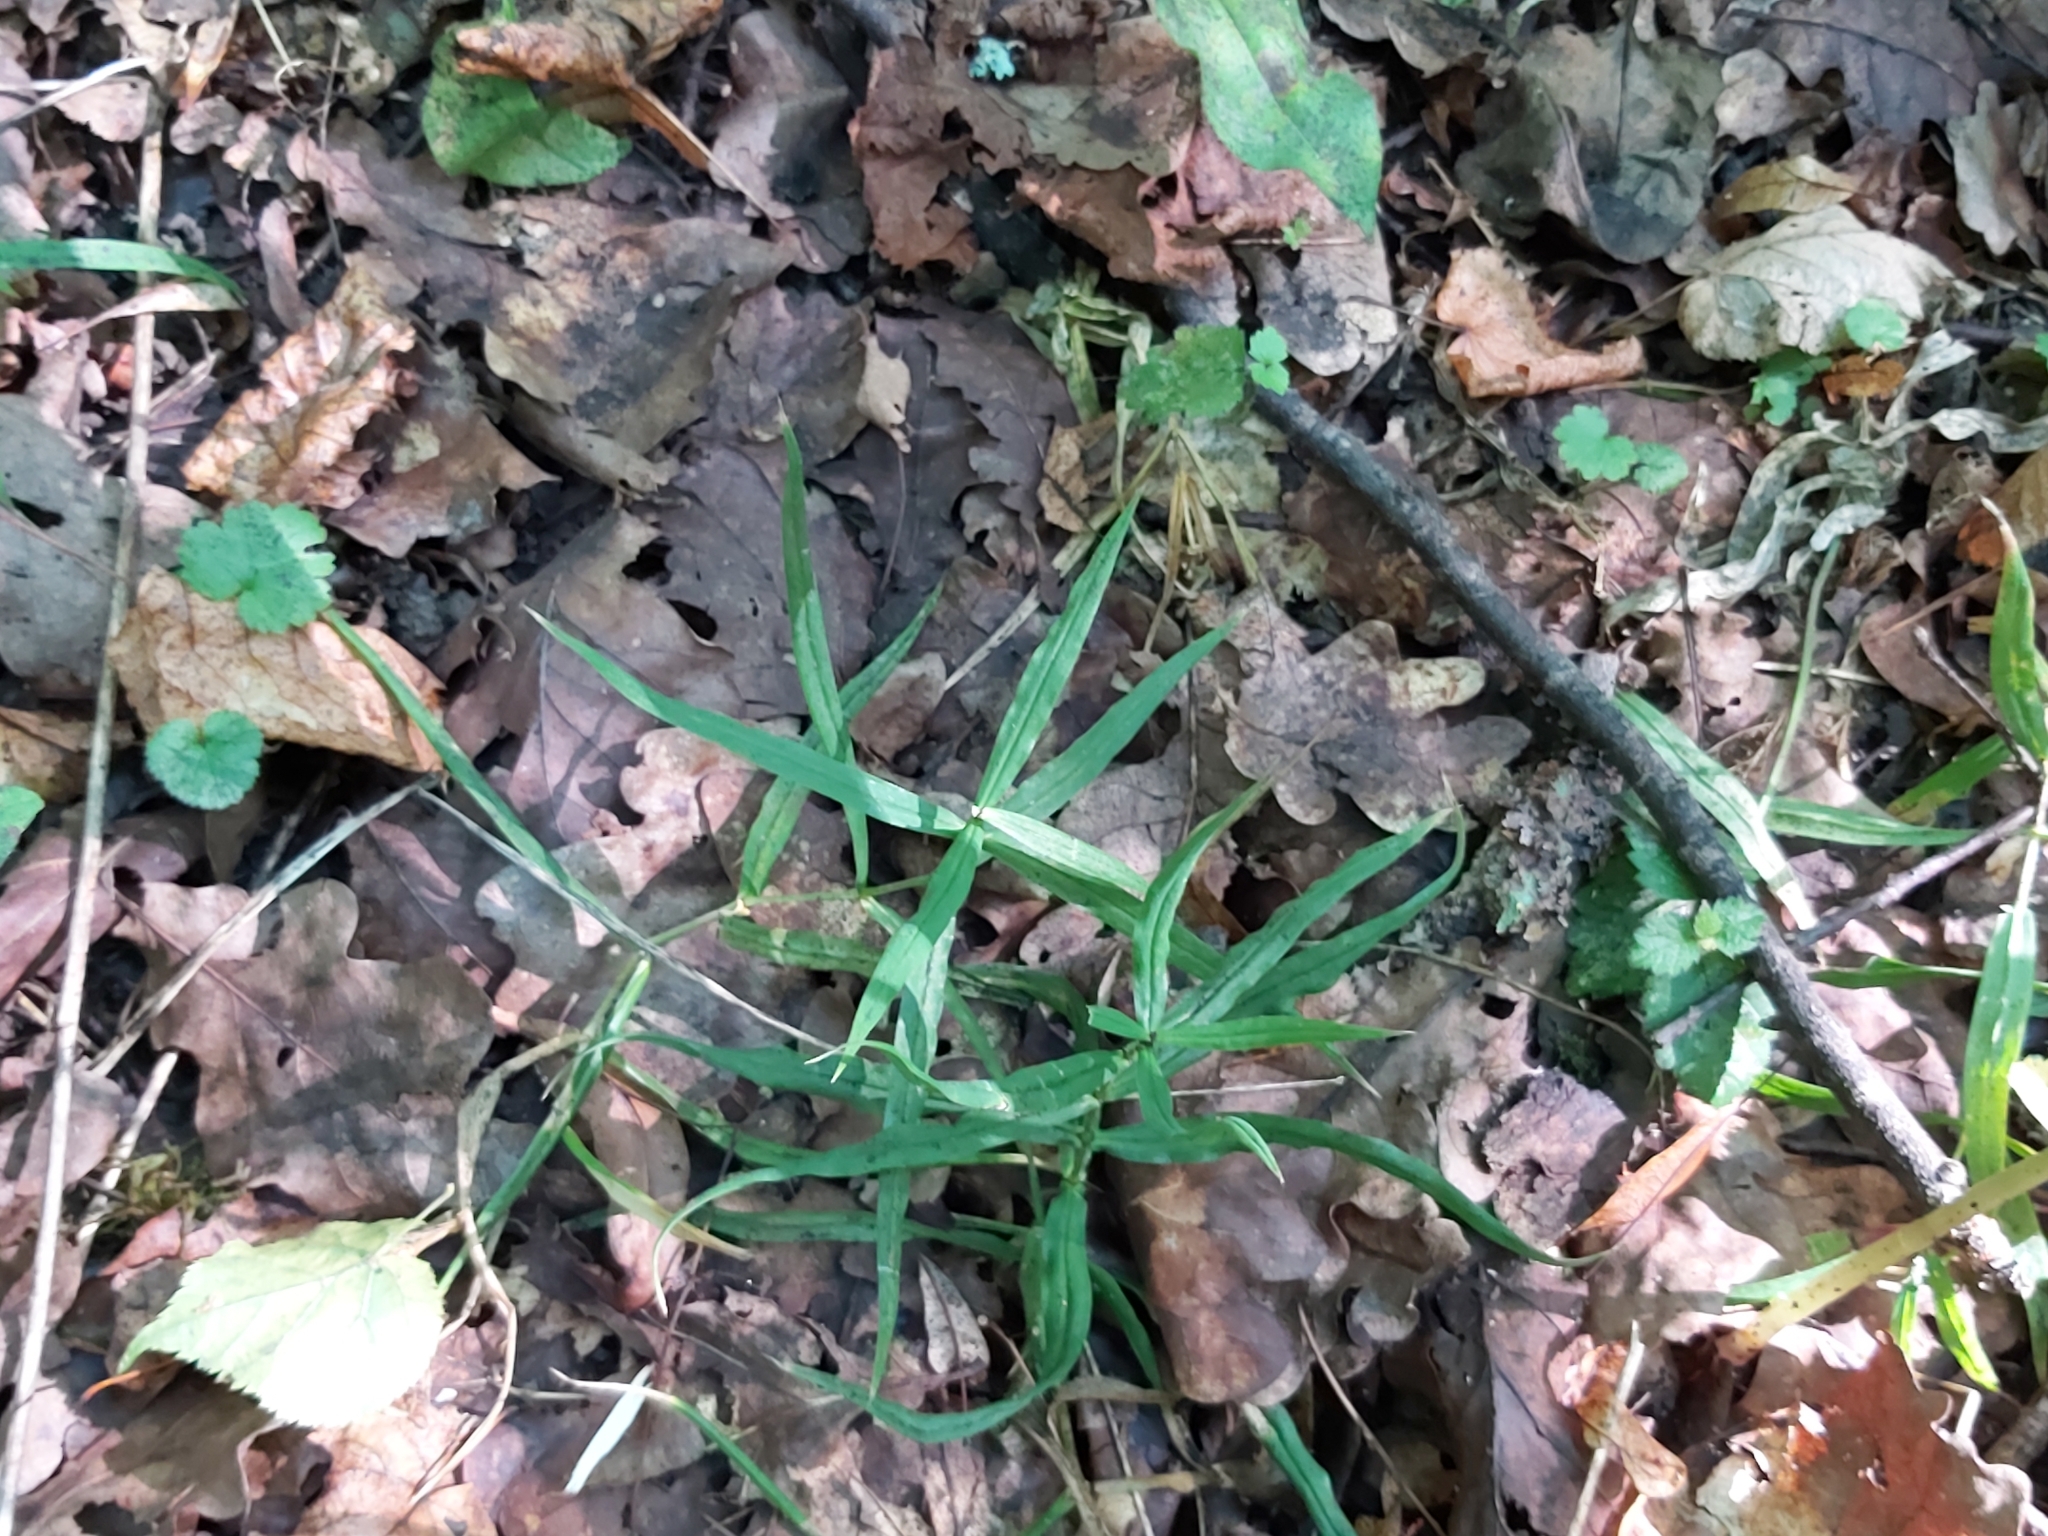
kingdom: Plantae
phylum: Tracheophyta
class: Magnoliopsida
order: Caryophyllales
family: Caryophyllaceae
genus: Rabelera
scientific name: Rabelera holostea
